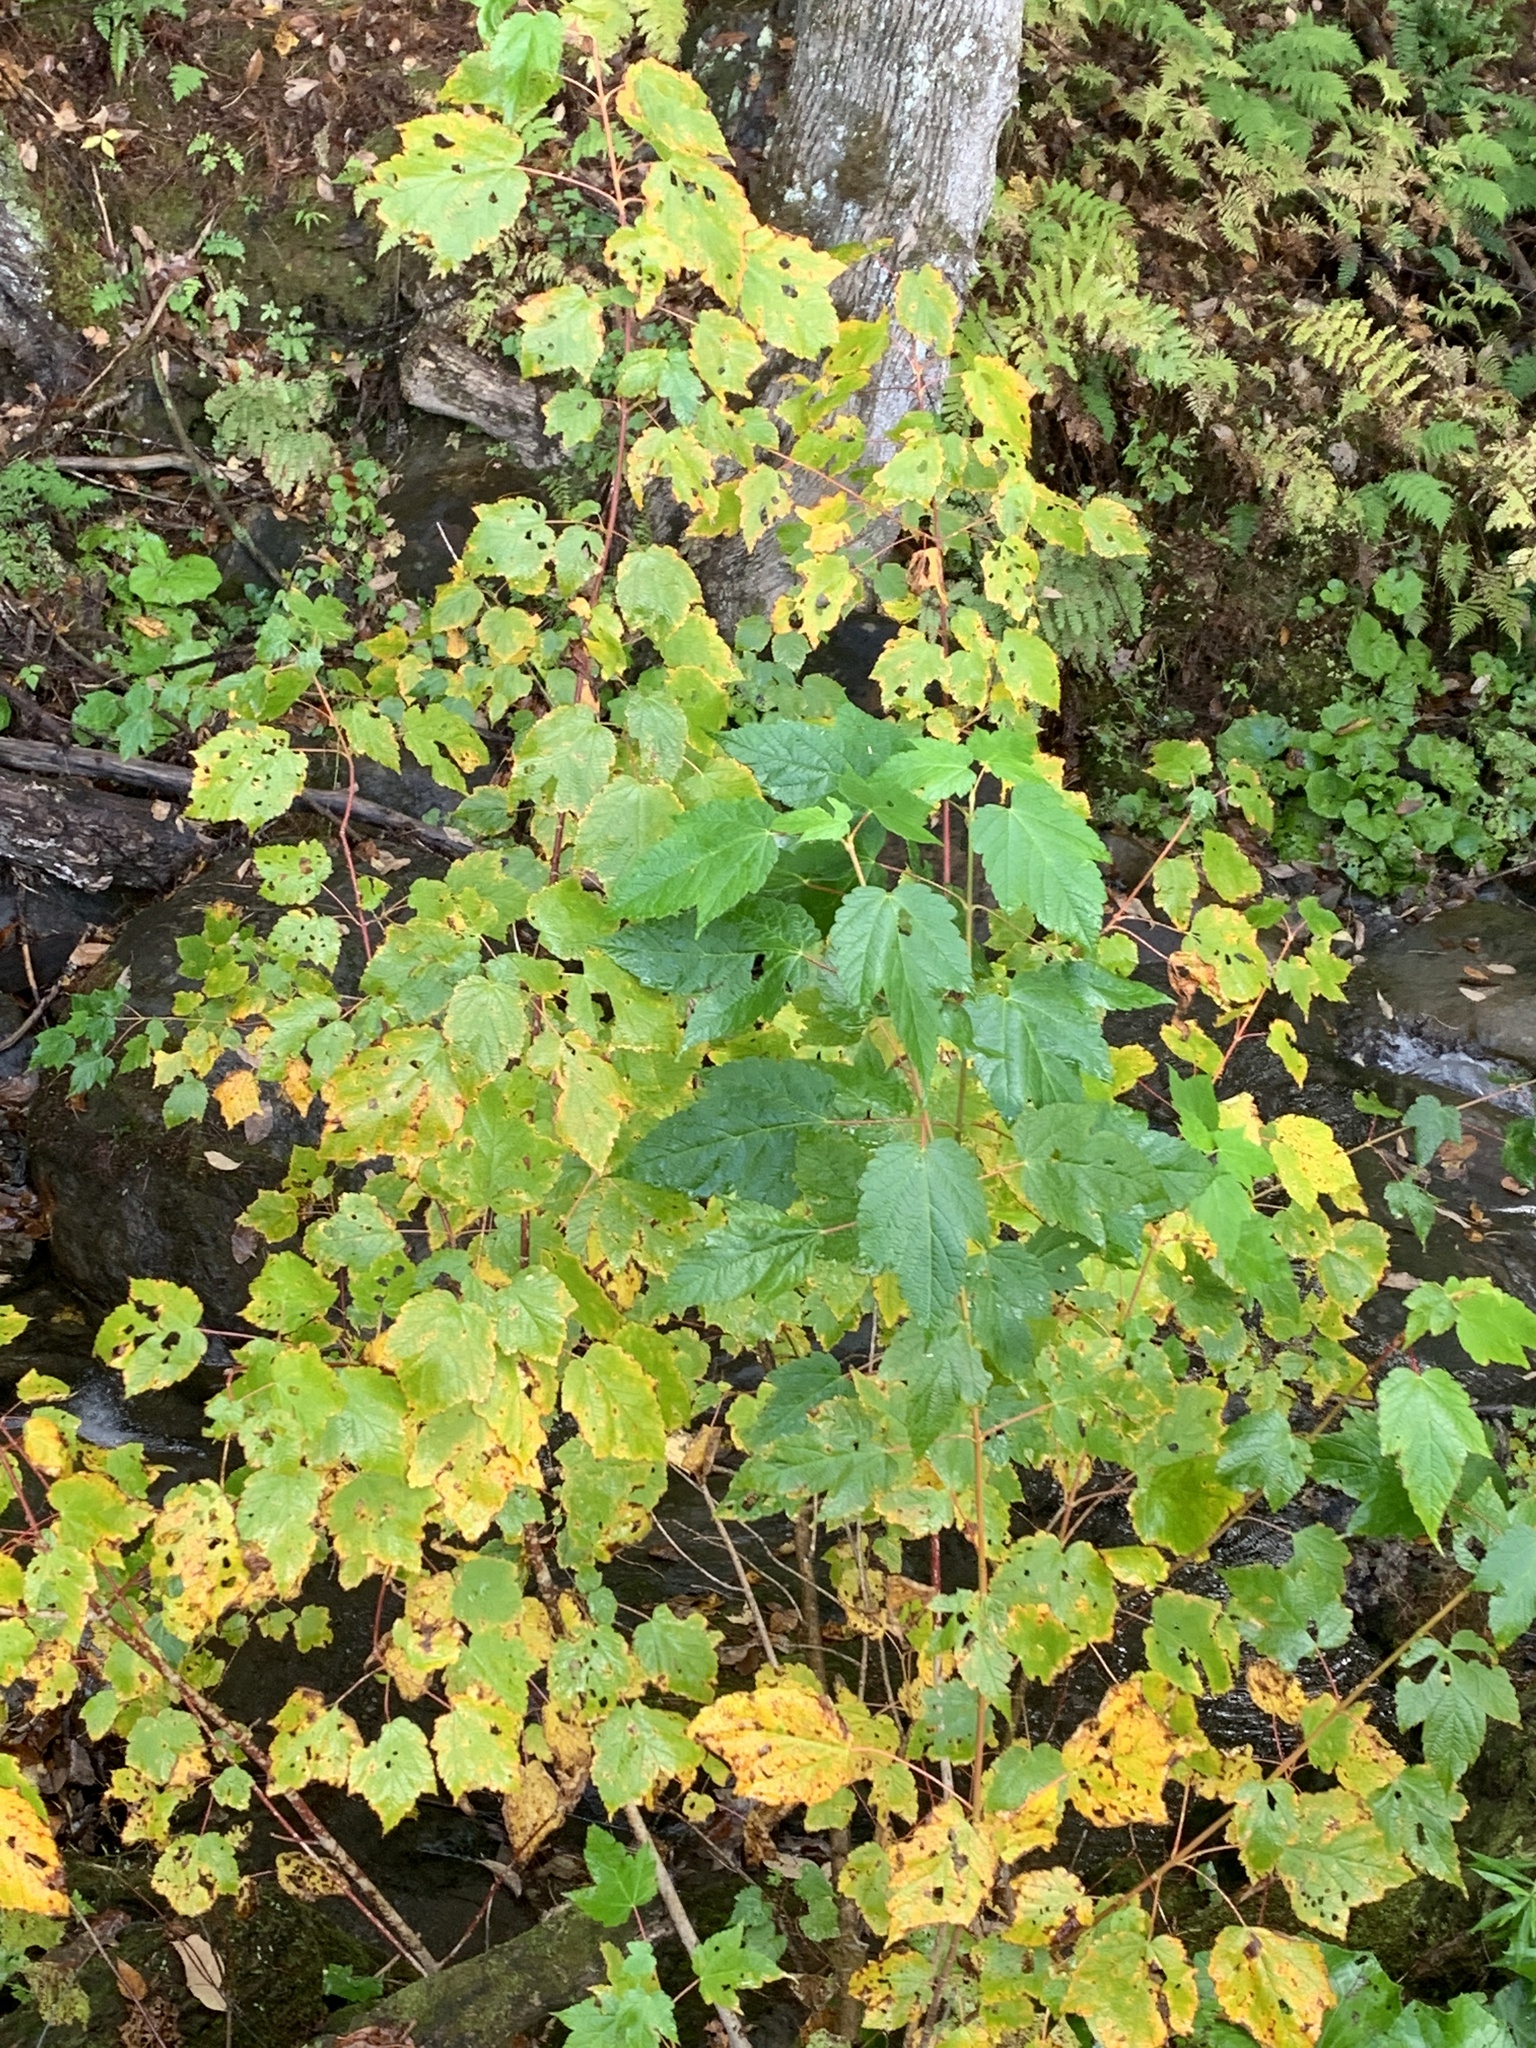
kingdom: Plantae
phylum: Tracheophyta
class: Magnoliopsida
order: Sapindales
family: Sapindaceae
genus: Acer
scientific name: Acer spicatum
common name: Mountain maple
